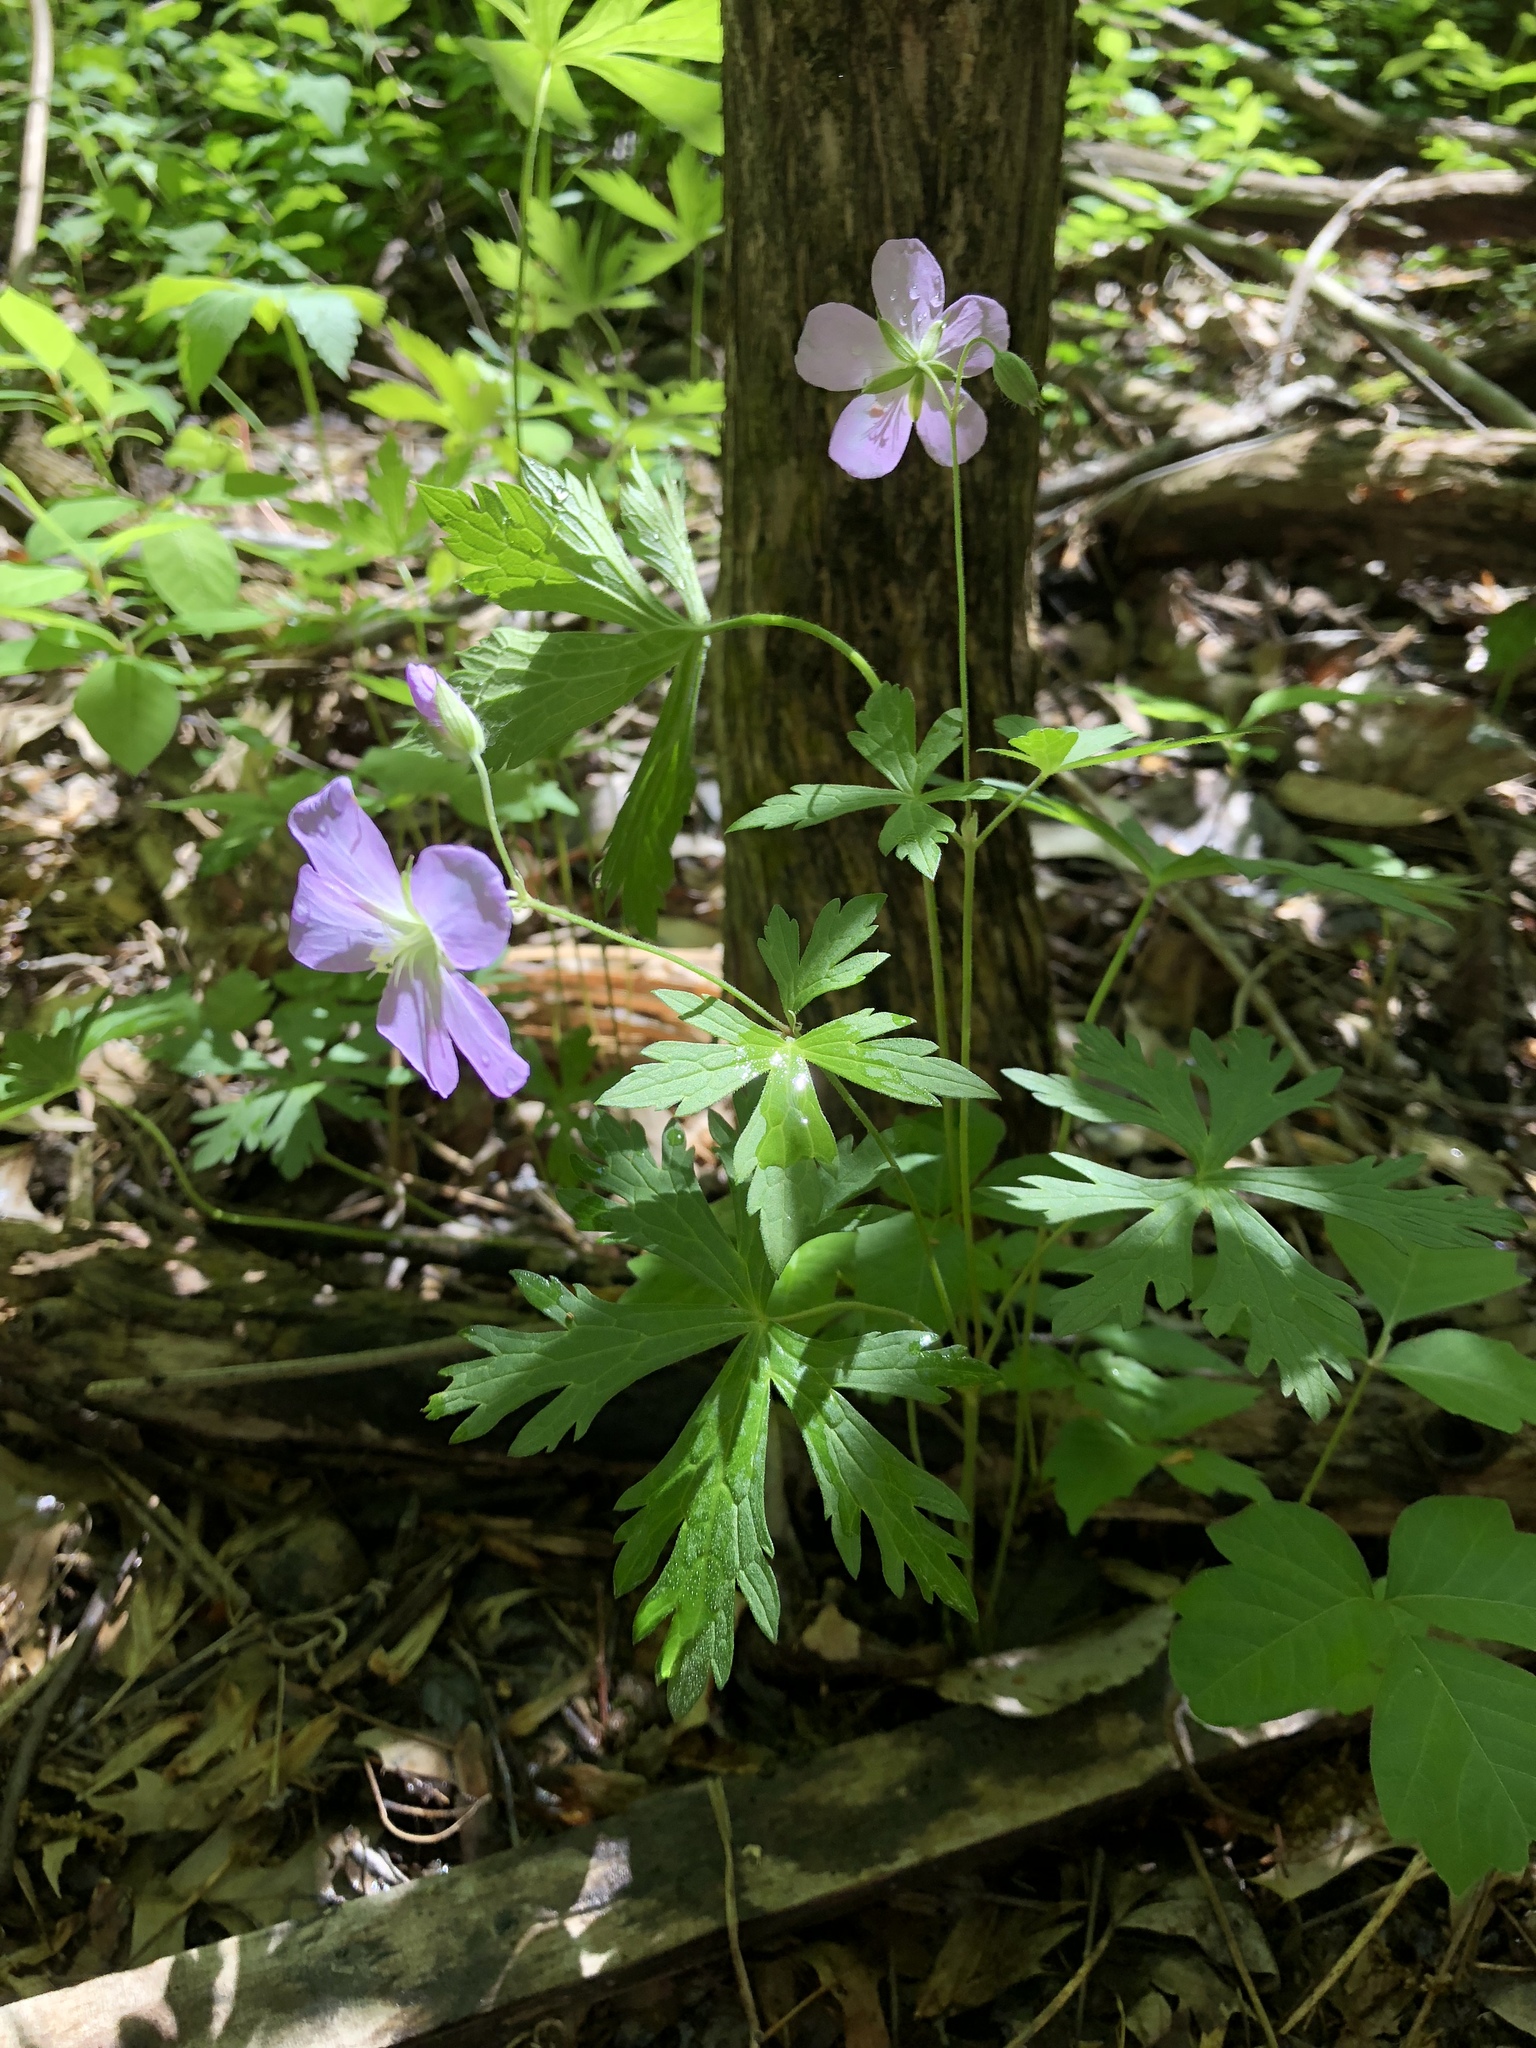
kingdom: Plantae
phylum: Tracheophyta
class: Magnoliopsida
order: Geraniales
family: Geraniaceae
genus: Geranium
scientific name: Geranium maculatum
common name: Spotted geranium
